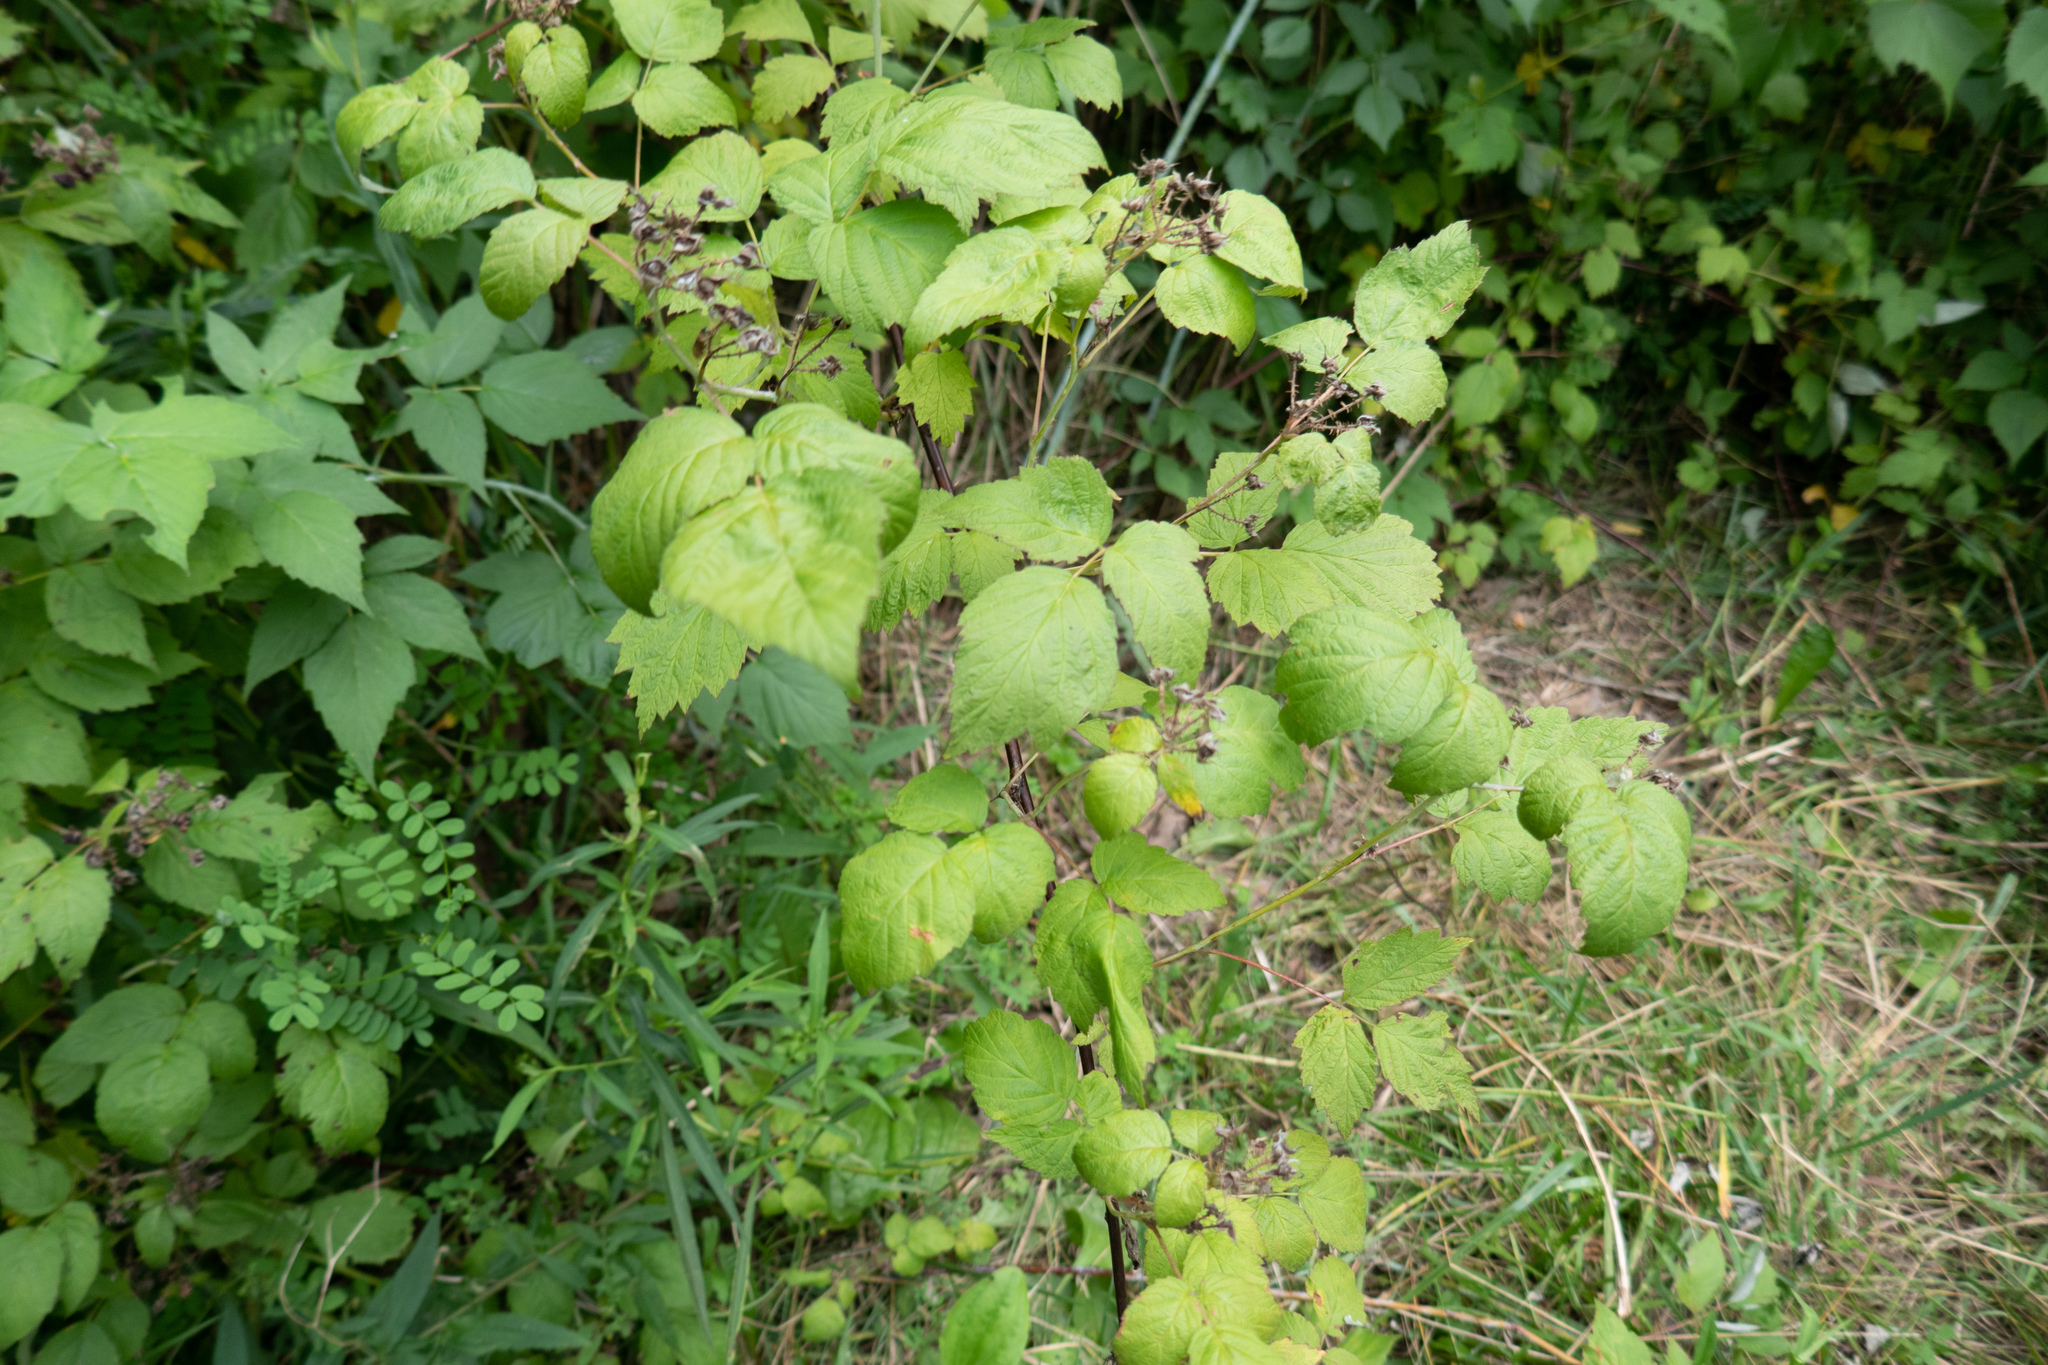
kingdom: Plantae
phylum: Tracheophyta
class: Magnoliopsida
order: Rosales
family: Rosaceae
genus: Rubus
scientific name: Rubus occidentalis
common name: Black raspberry
